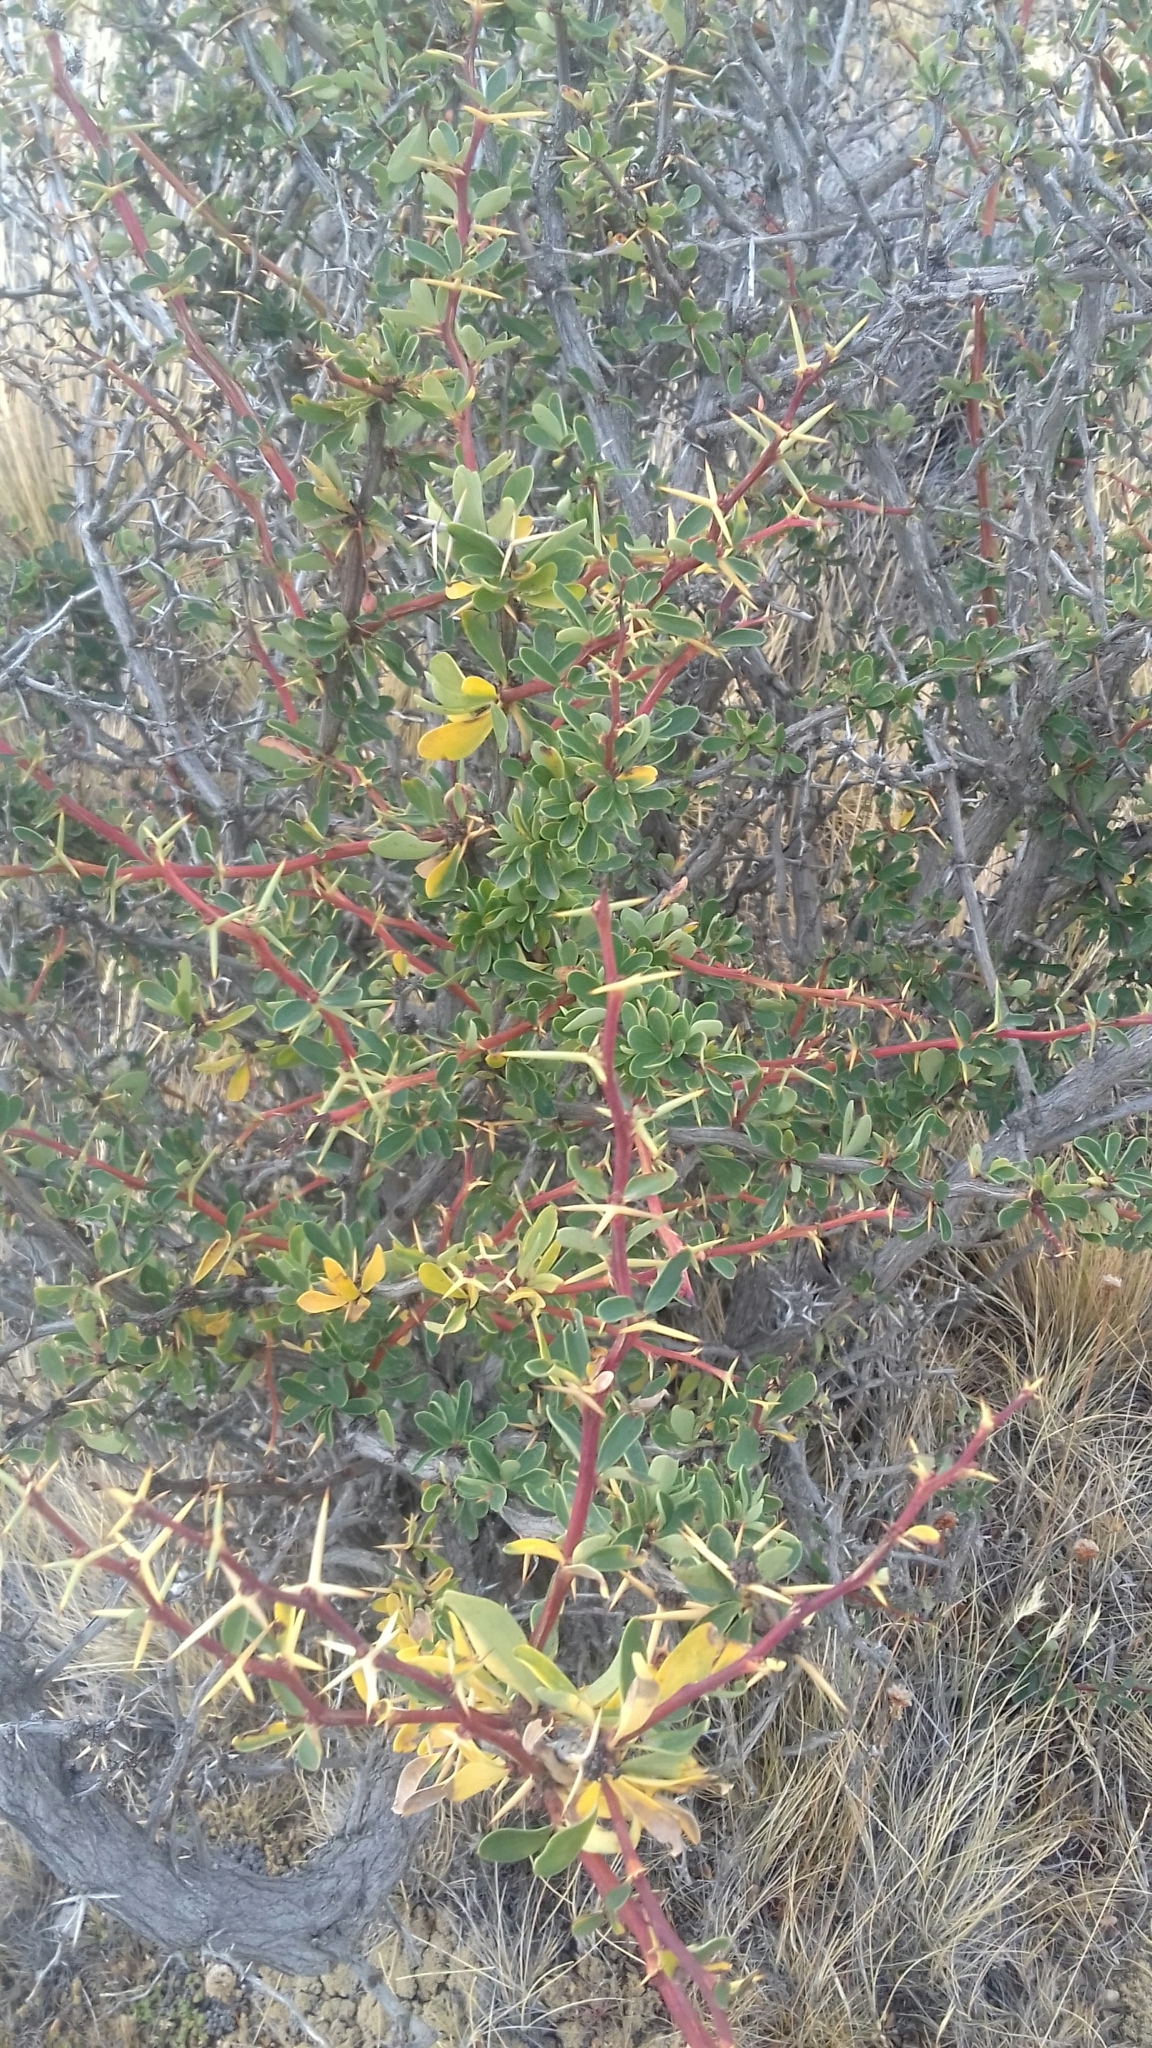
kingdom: Plantae
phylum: Tracheophyta
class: Magnoliopsida
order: Ranunculales
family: Berberidaceae
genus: Berberis
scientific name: Berberis microphylla
